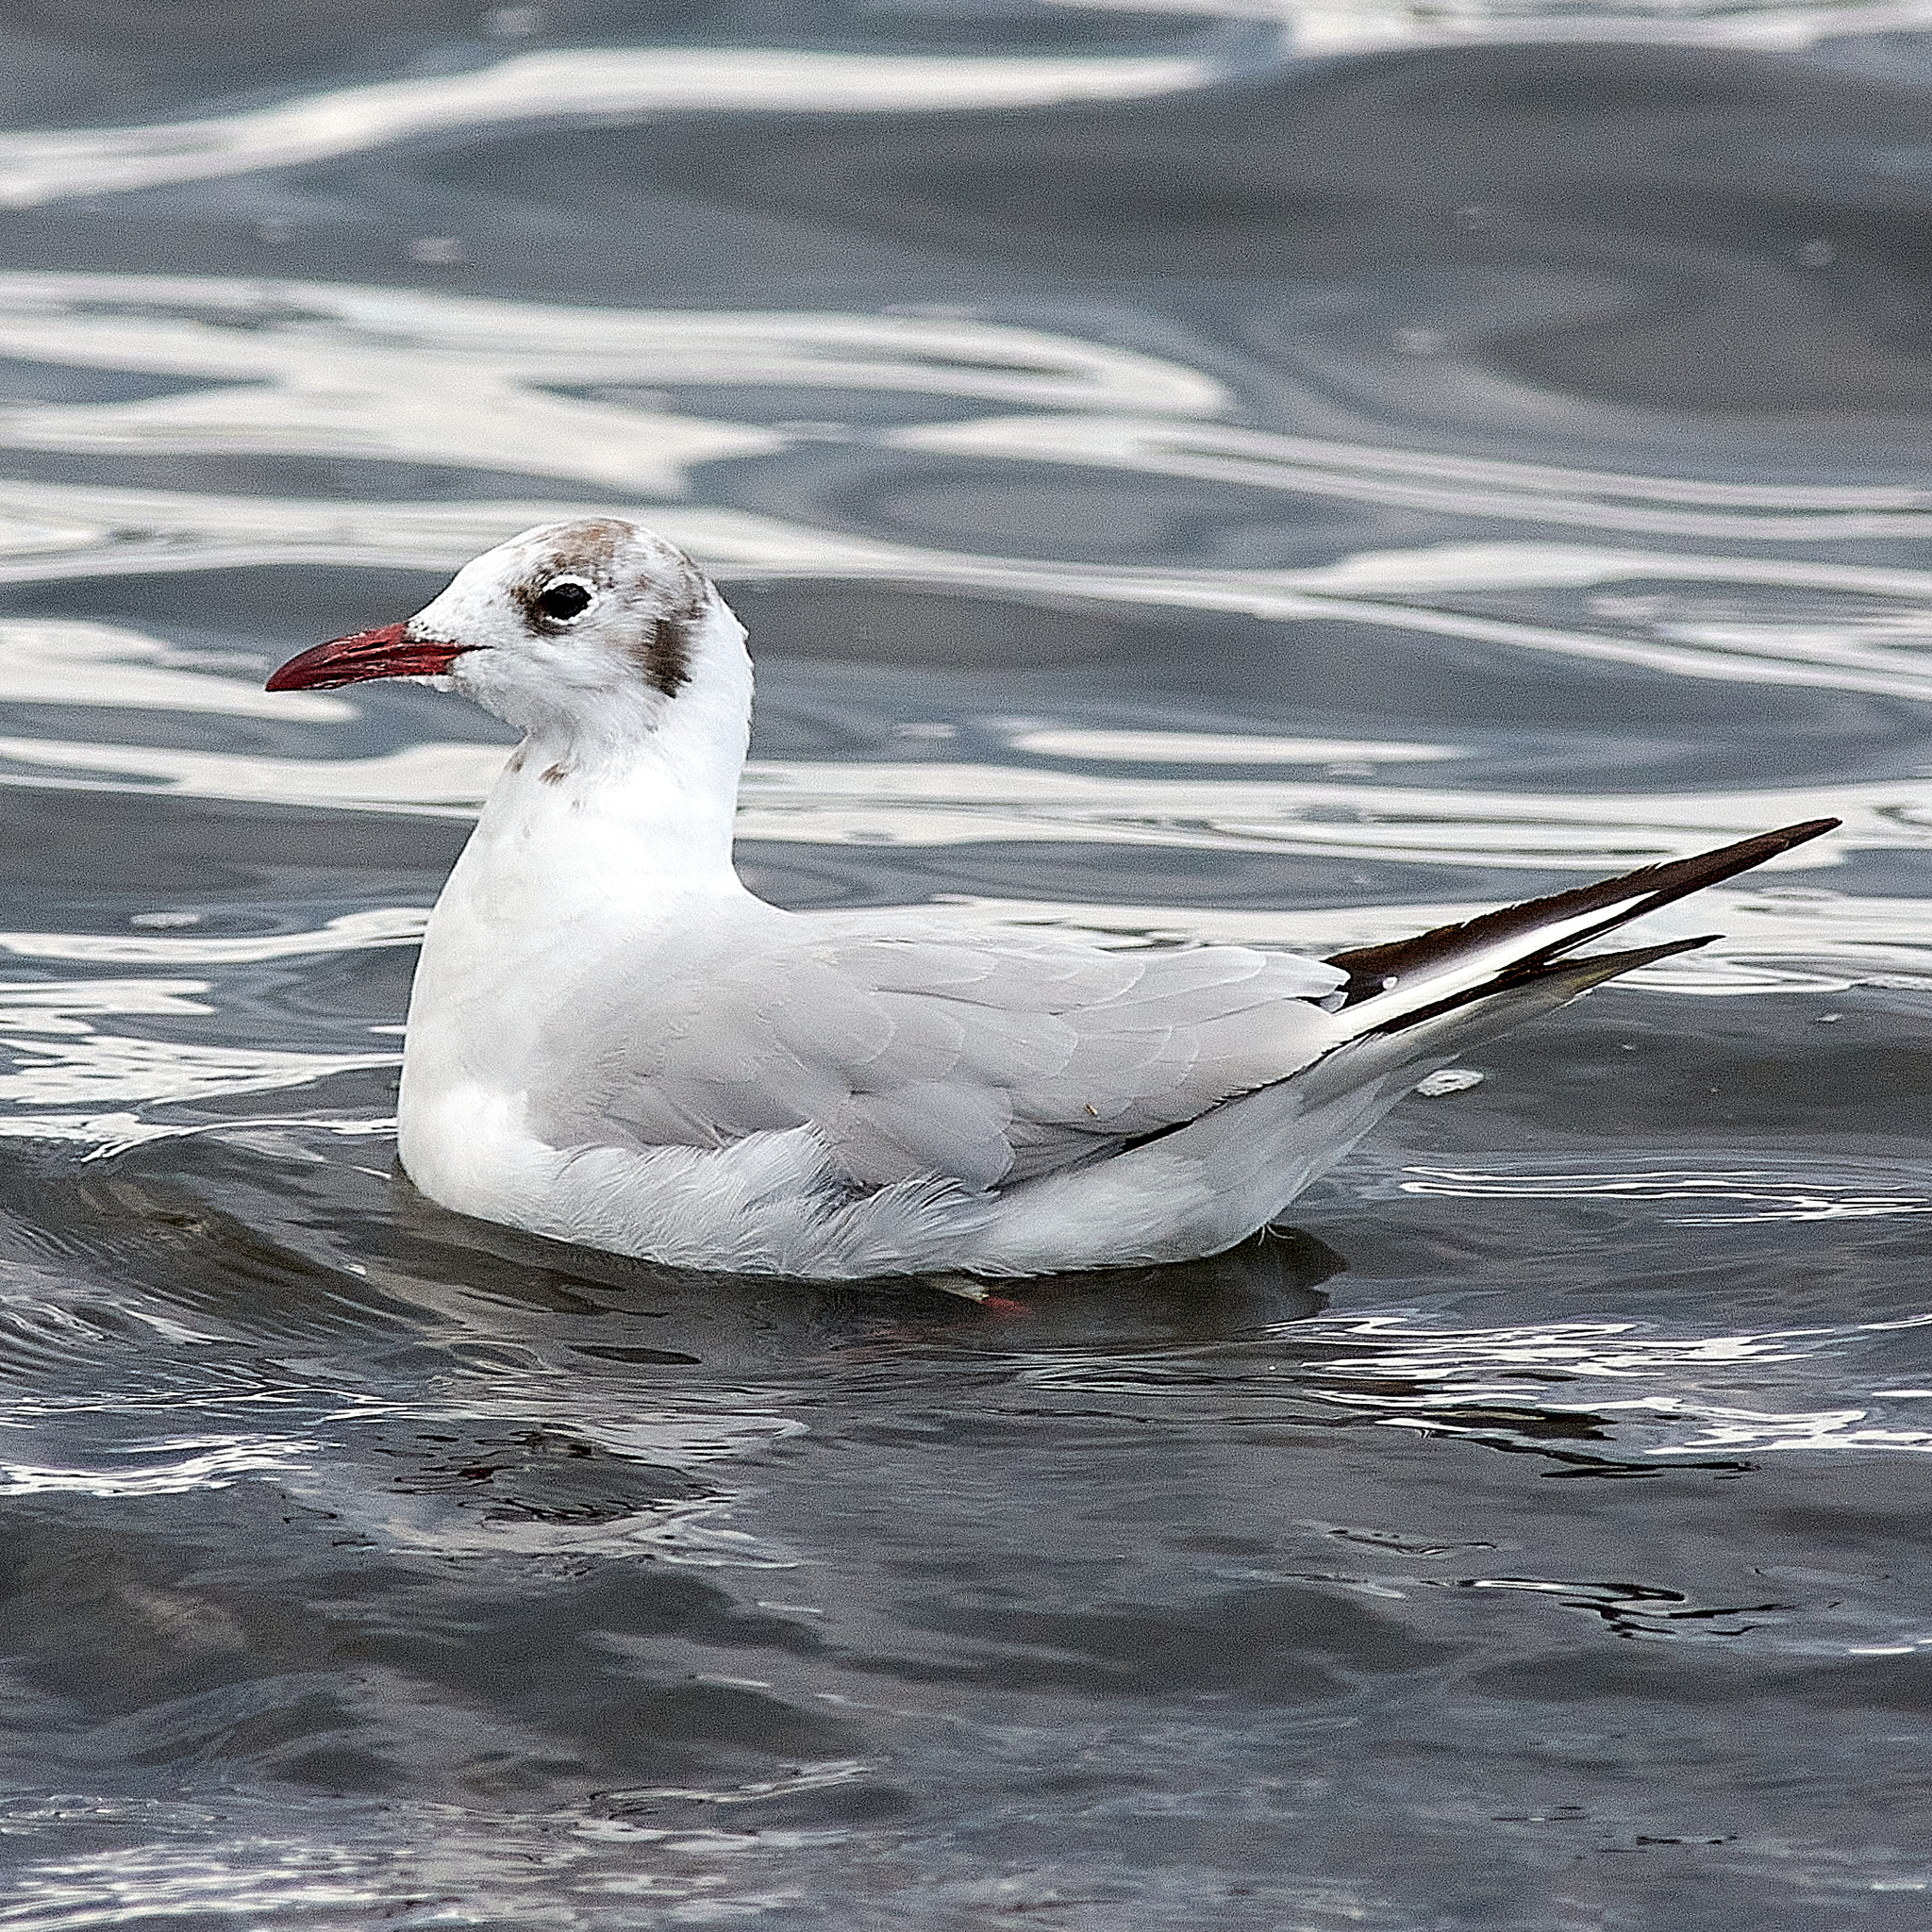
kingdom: Animalia
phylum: Chordata
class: Aves
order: Charadriiformes
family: Laridae
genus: Chroicocephalus
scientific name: Chroicocephalus ridibundus
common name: Black-headed gull
